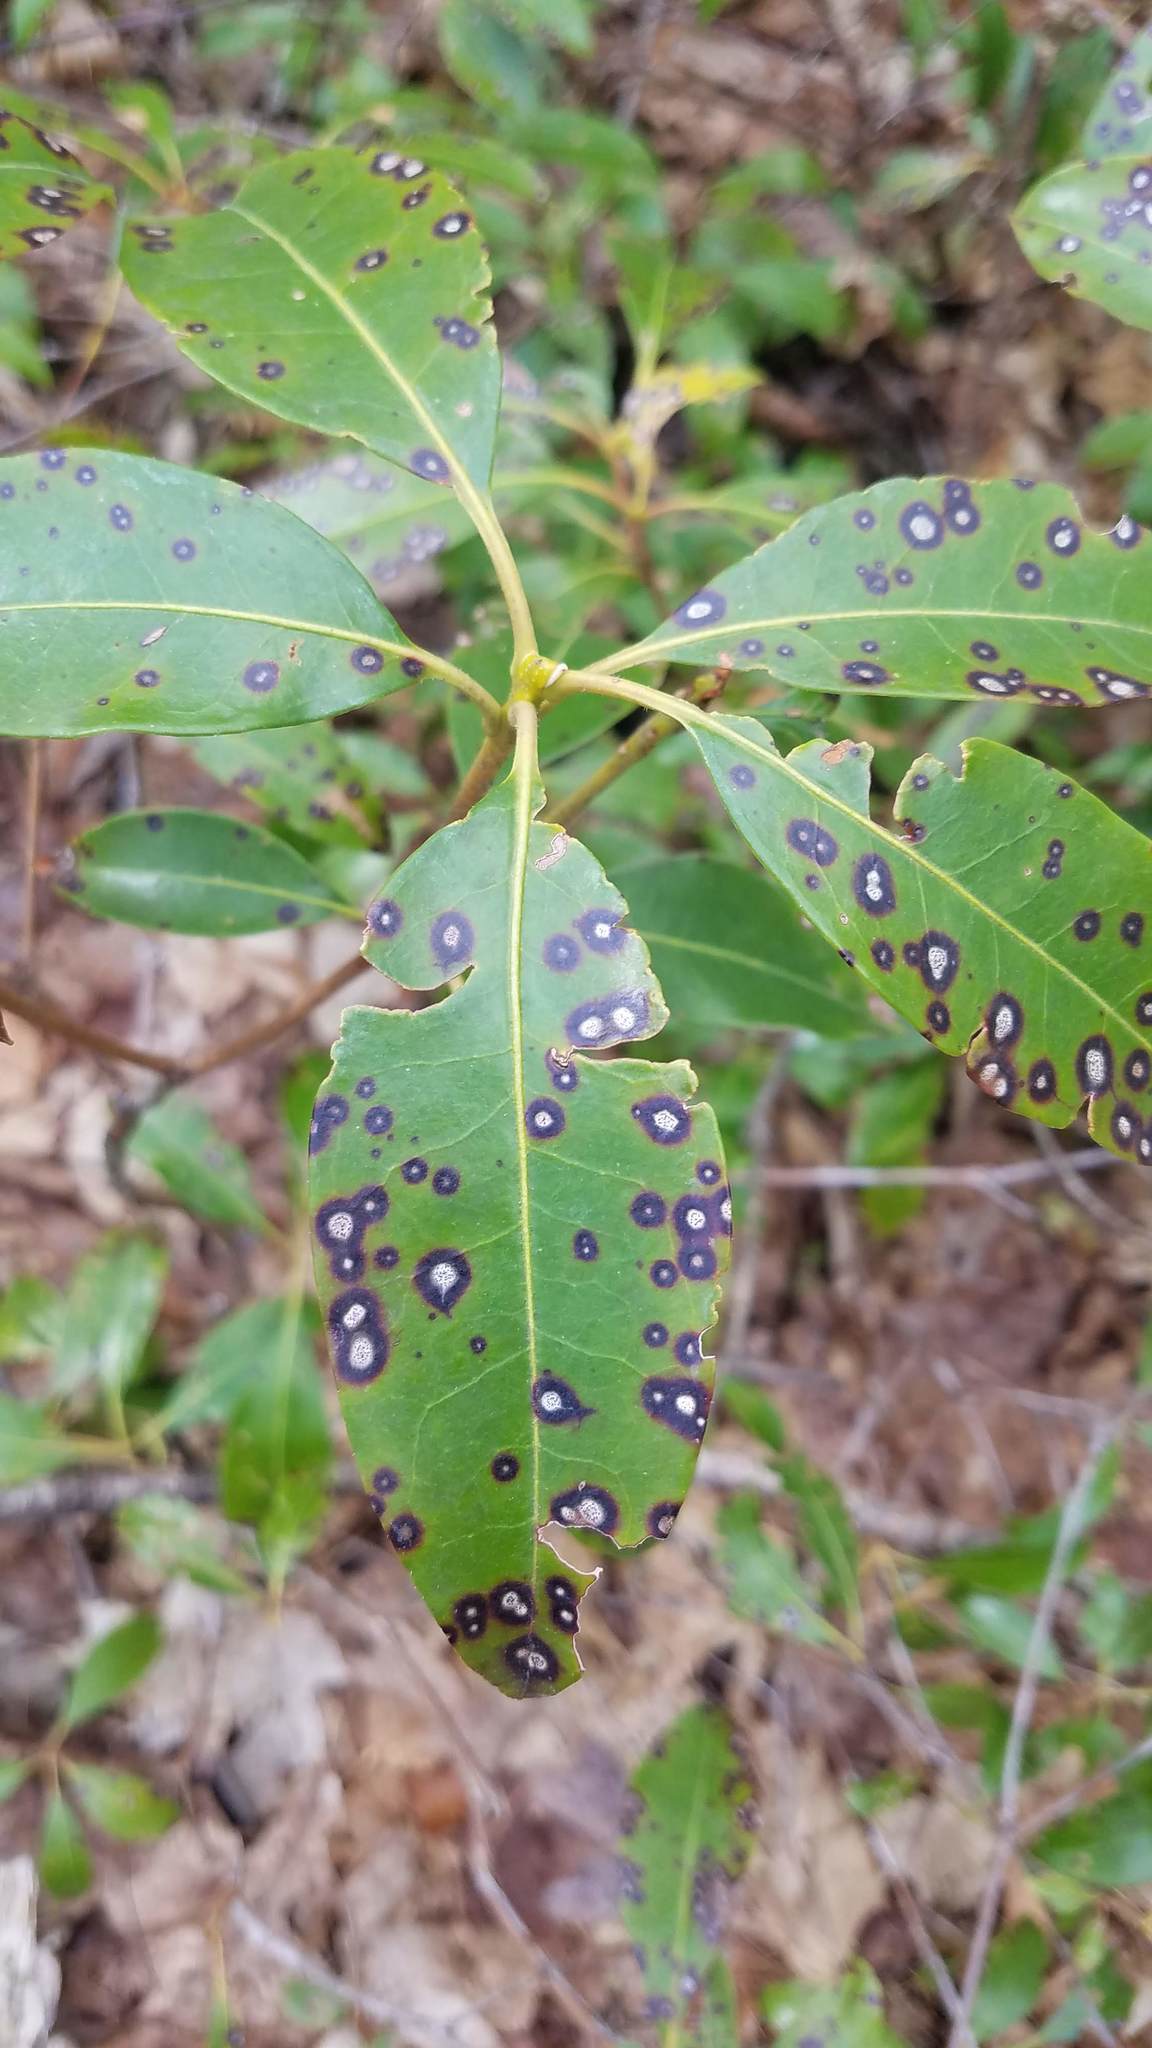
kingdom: Fungi
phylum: Ascomycota
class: Dothideomycetes
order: Mycosphaerellales
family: Mycosphaerellaceae
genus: Mycosphaerella
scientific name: Mycosphaerella colorata
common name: Mountain laurel leaf spot
